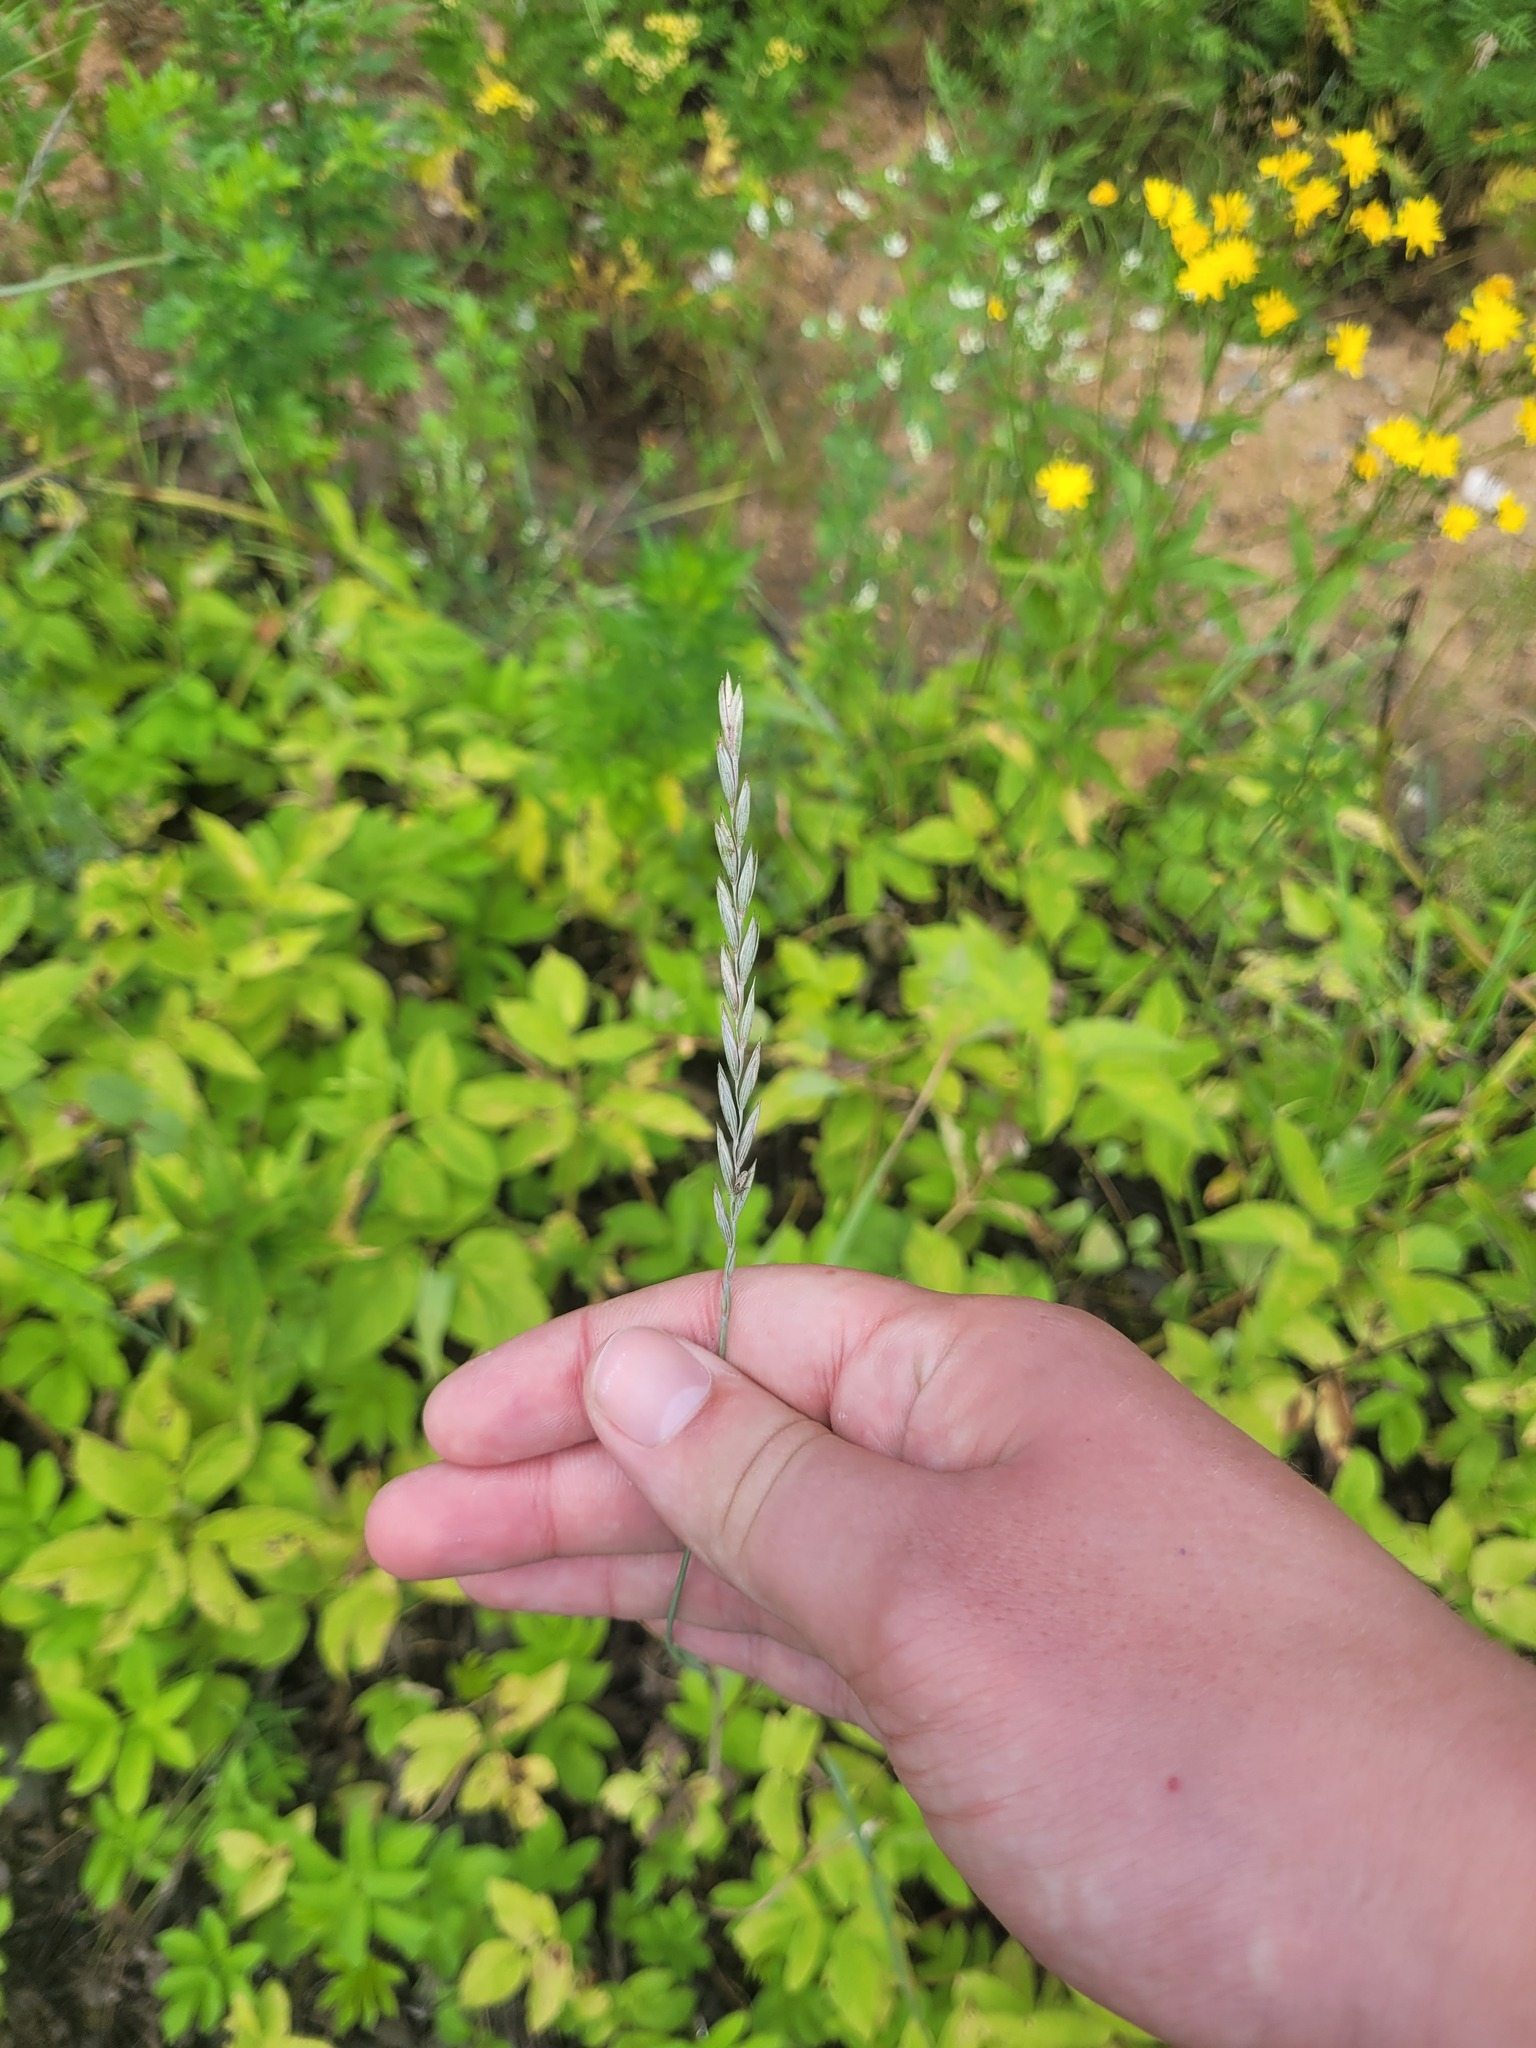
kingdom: Plantae
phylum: Tracheophyta
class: Liliopsida
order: Poales
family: Poaceae
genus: Elymus
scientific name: Elymus repens
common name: Quackgrass
